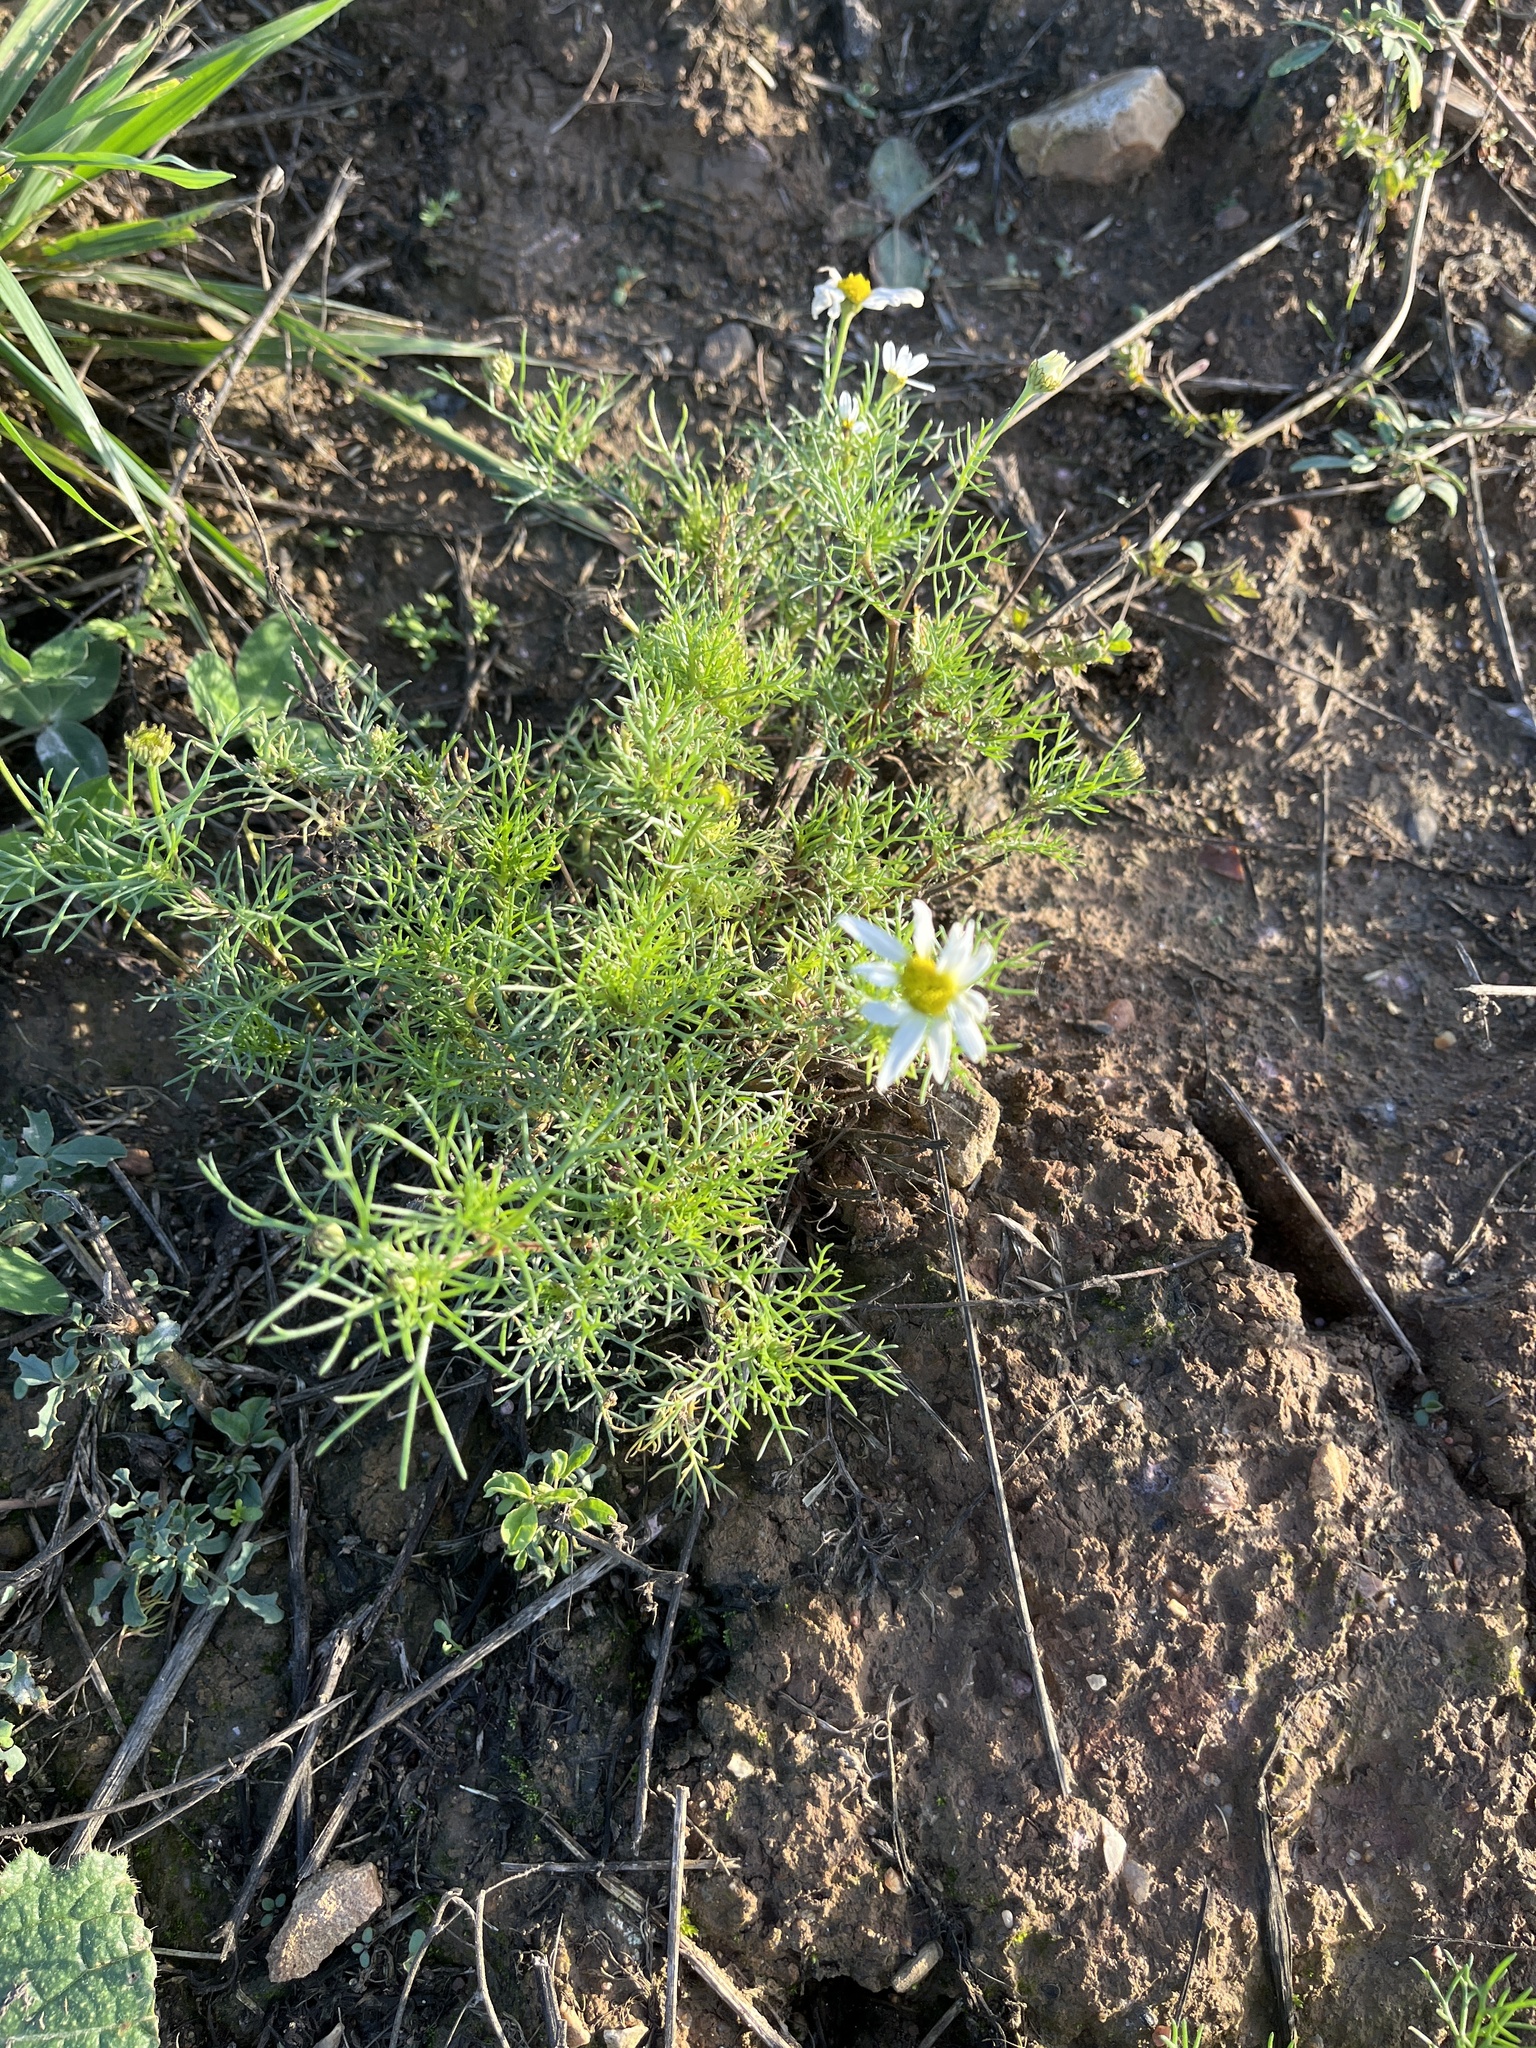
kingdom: Plantae
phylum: Tracheophyta
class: Magnoliopsida
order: Asterales
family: Asteraceae
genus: Tripleurospermum
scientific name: Tripleurospermum inodorum
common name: Scentless mayweed
